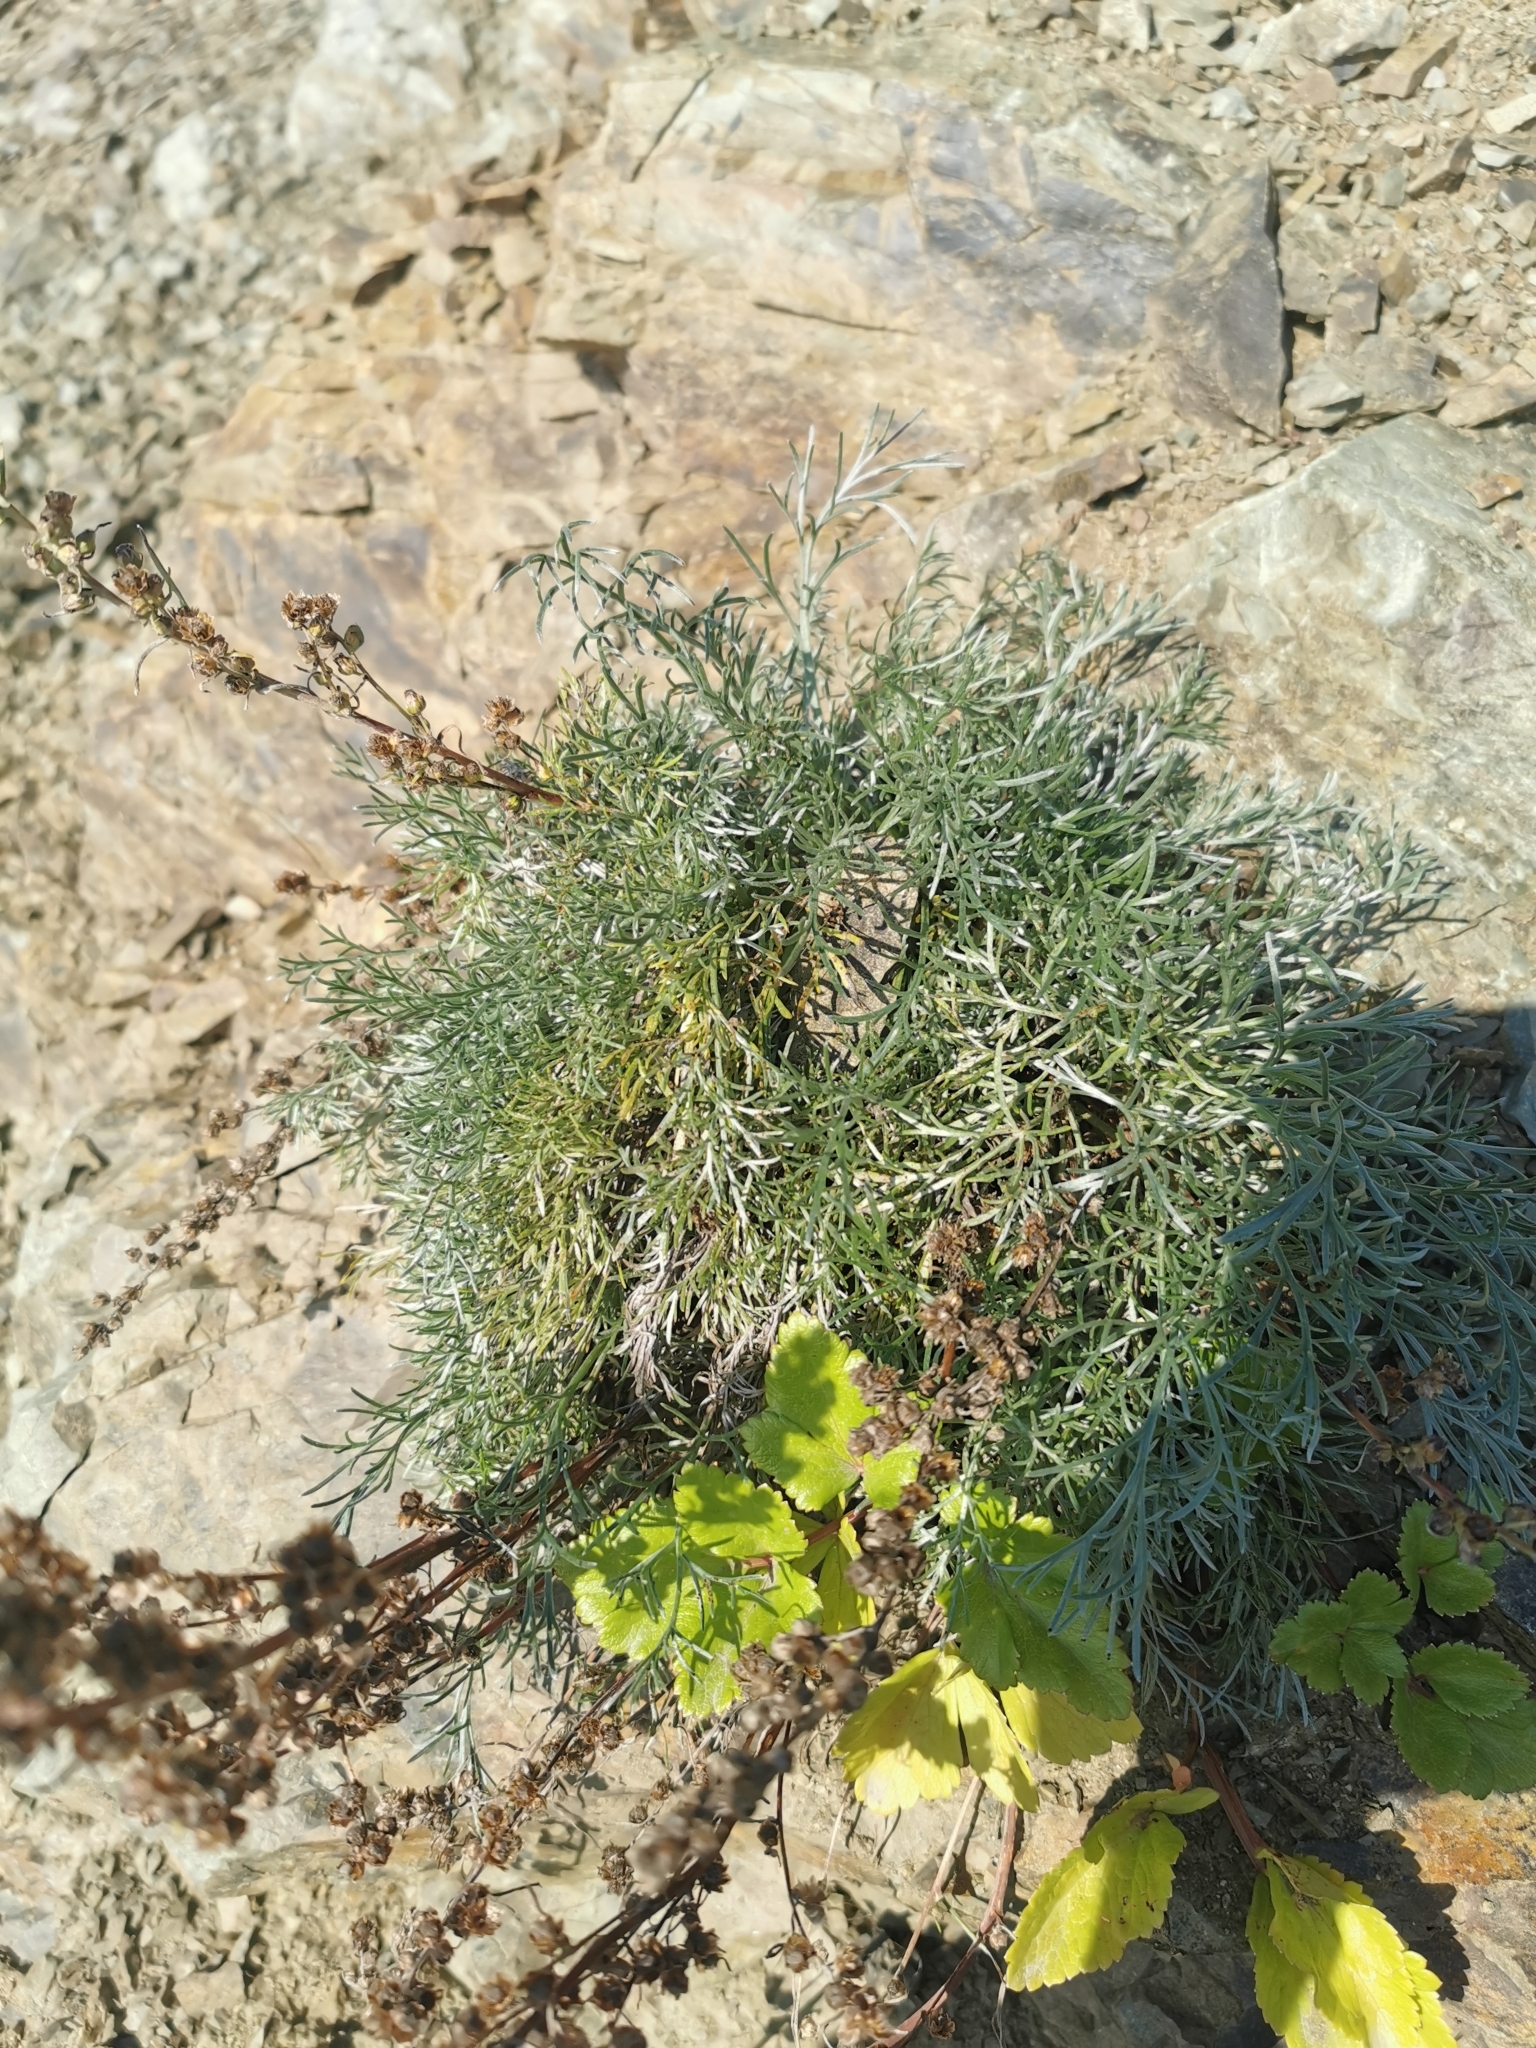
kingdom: Plantae
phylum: Tracheophyta
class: Magnoliopsida
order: Asterales
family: Asteraceae
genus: Artemisia
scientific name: Artemisia borealis
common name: Boreal sage
